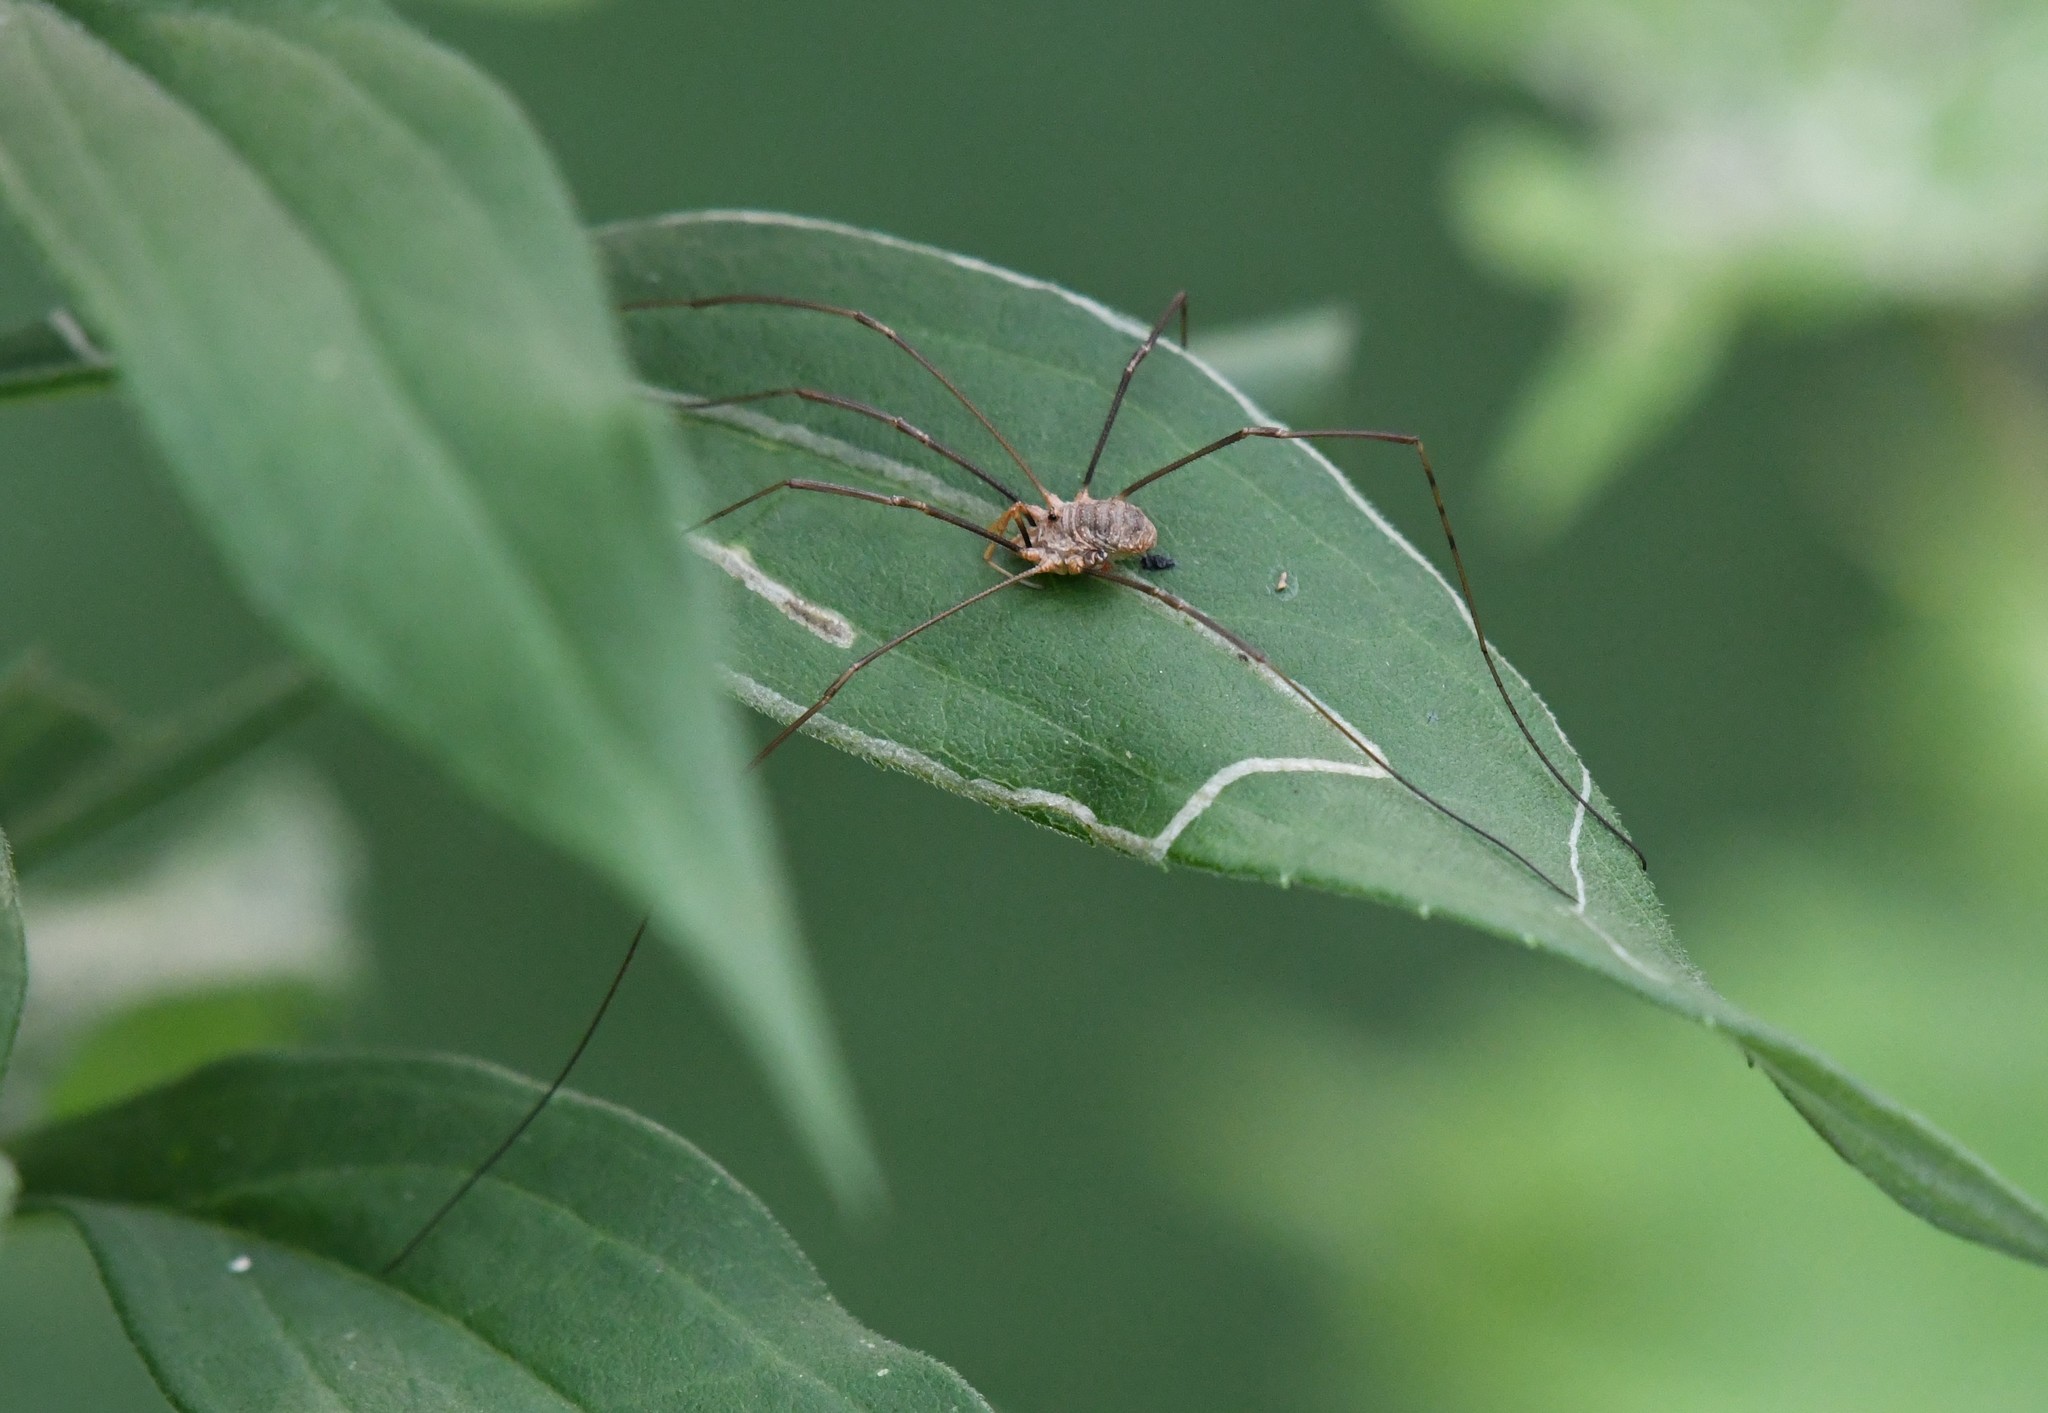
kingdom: Animalia
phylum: Arthropoda
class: Arachnida
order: Opiliones
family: Phalangiidae
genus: Phalangium
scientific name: Phalangium opilio
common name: Daddy longleg
